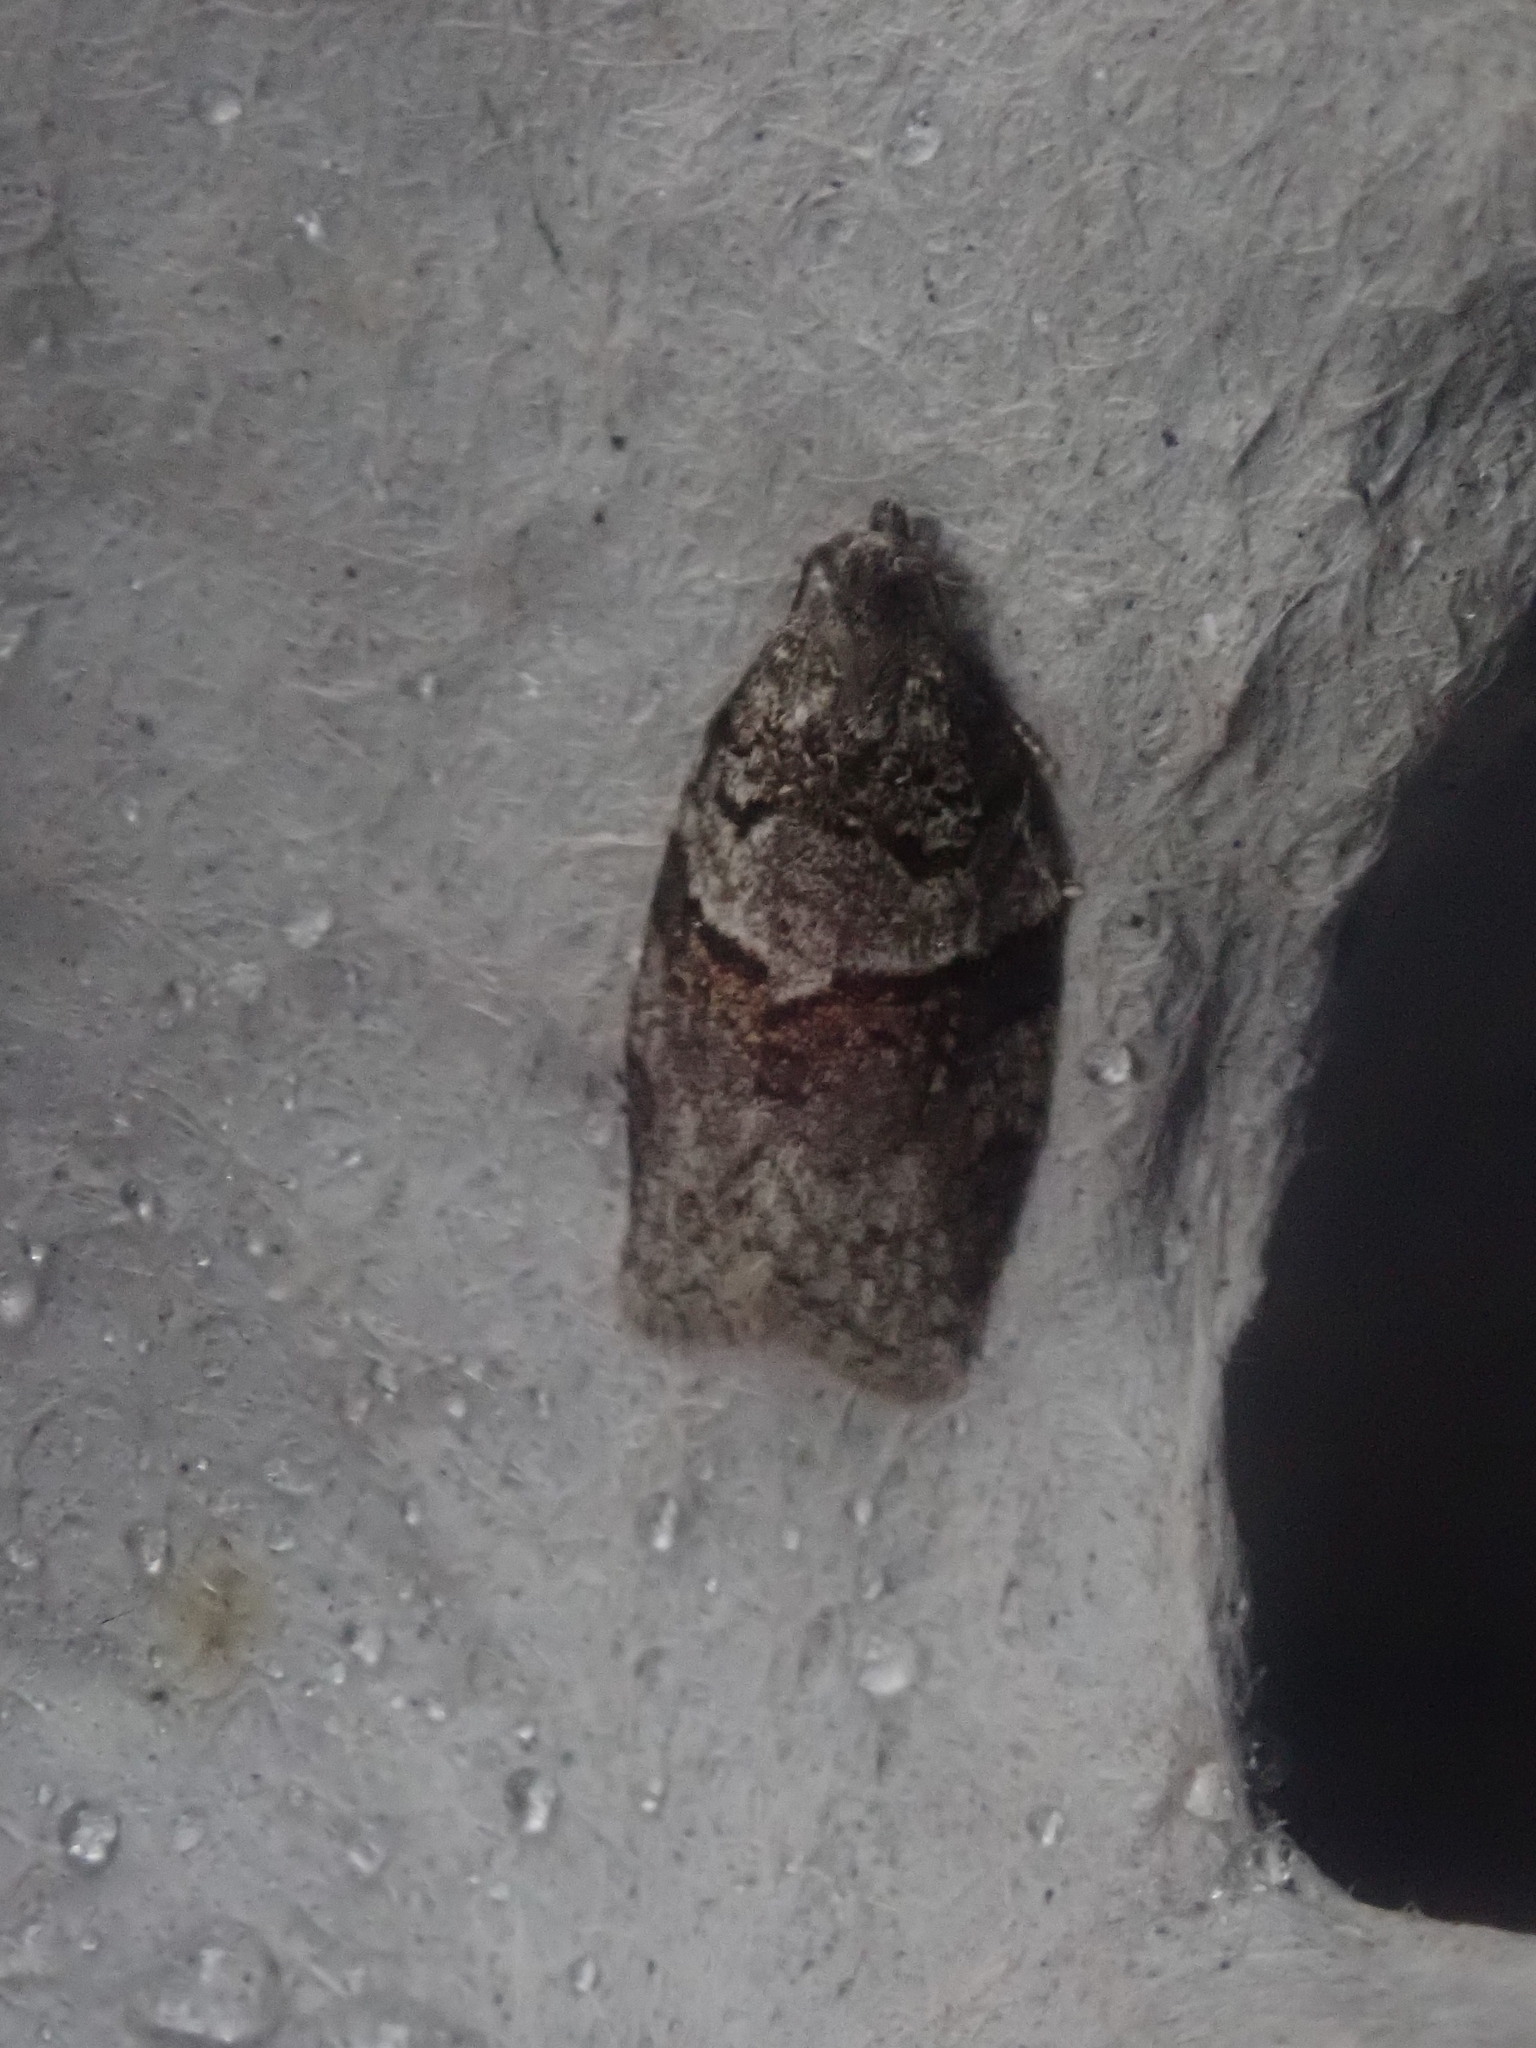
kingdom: Animalia
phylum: Arthropoda
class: Insecta
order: Lepidoptera
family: Tortricidae
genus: Syndemis
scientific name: Syndemis afflictana
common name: Gray leafroller moth
